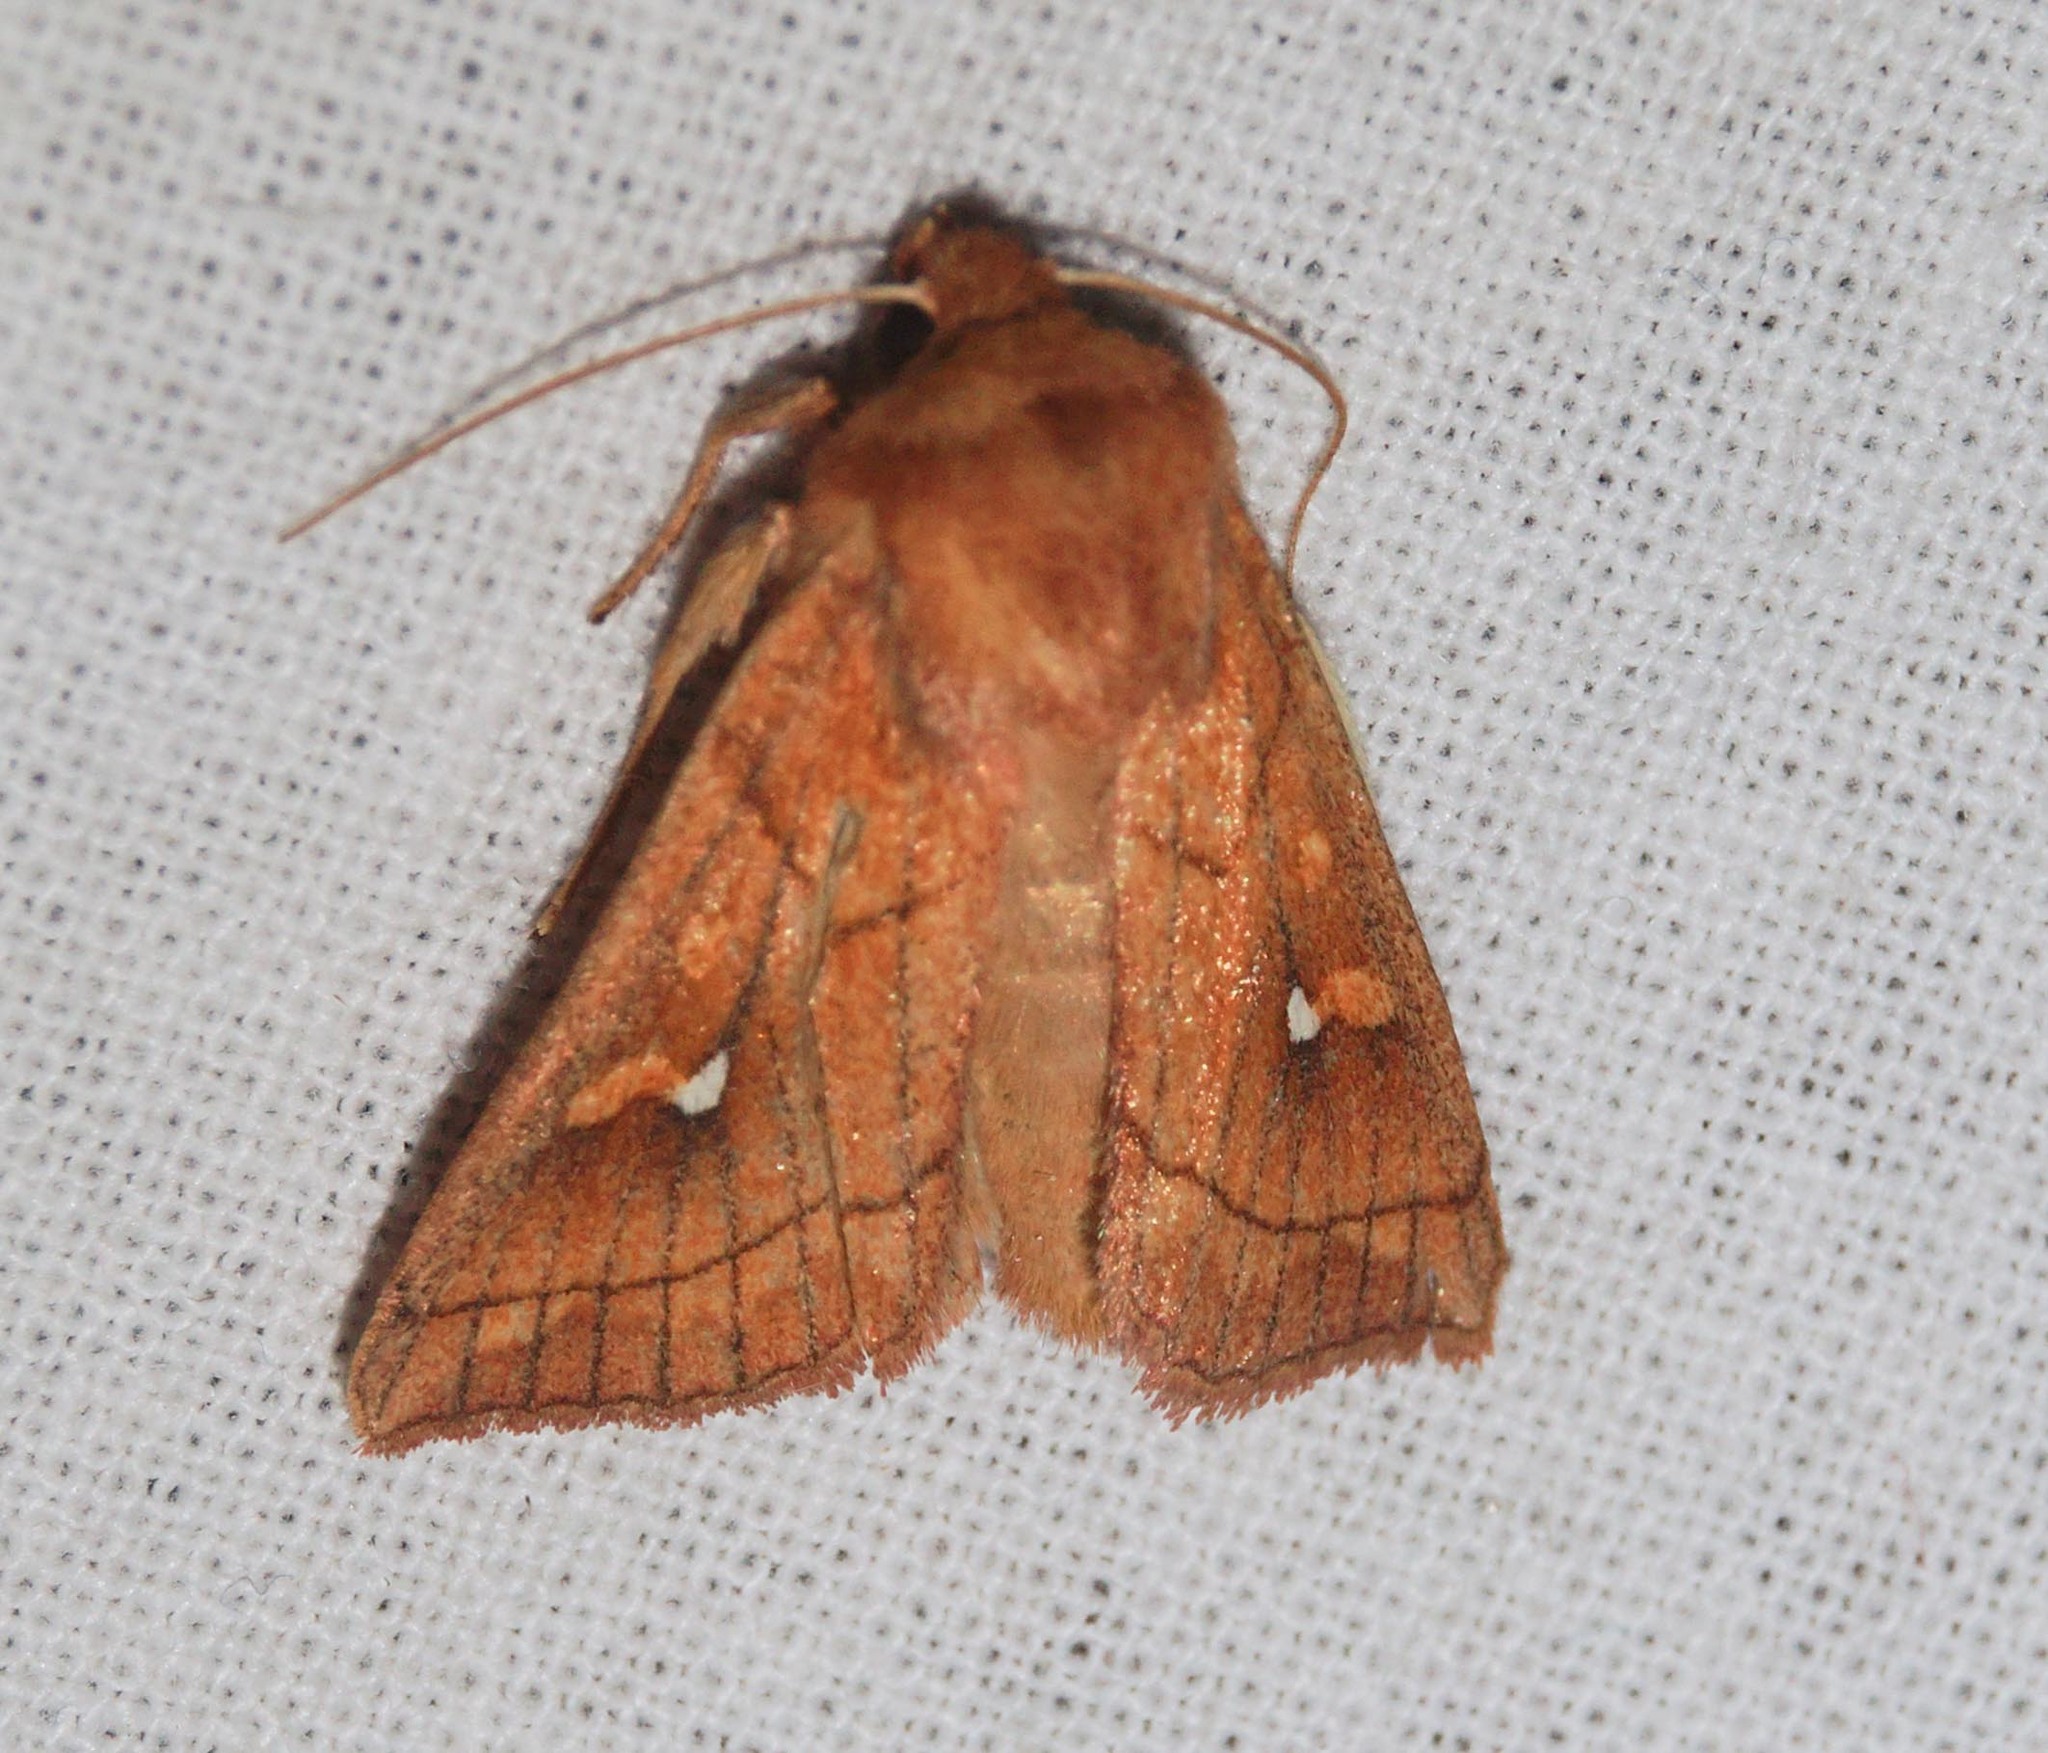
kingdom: Animalia
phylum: Arthropoda
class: Insecta
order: Lepidoptera
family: Noctuidae
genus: Mythimna
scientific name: Mythimna conigera
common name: Brown-line bright-eye
